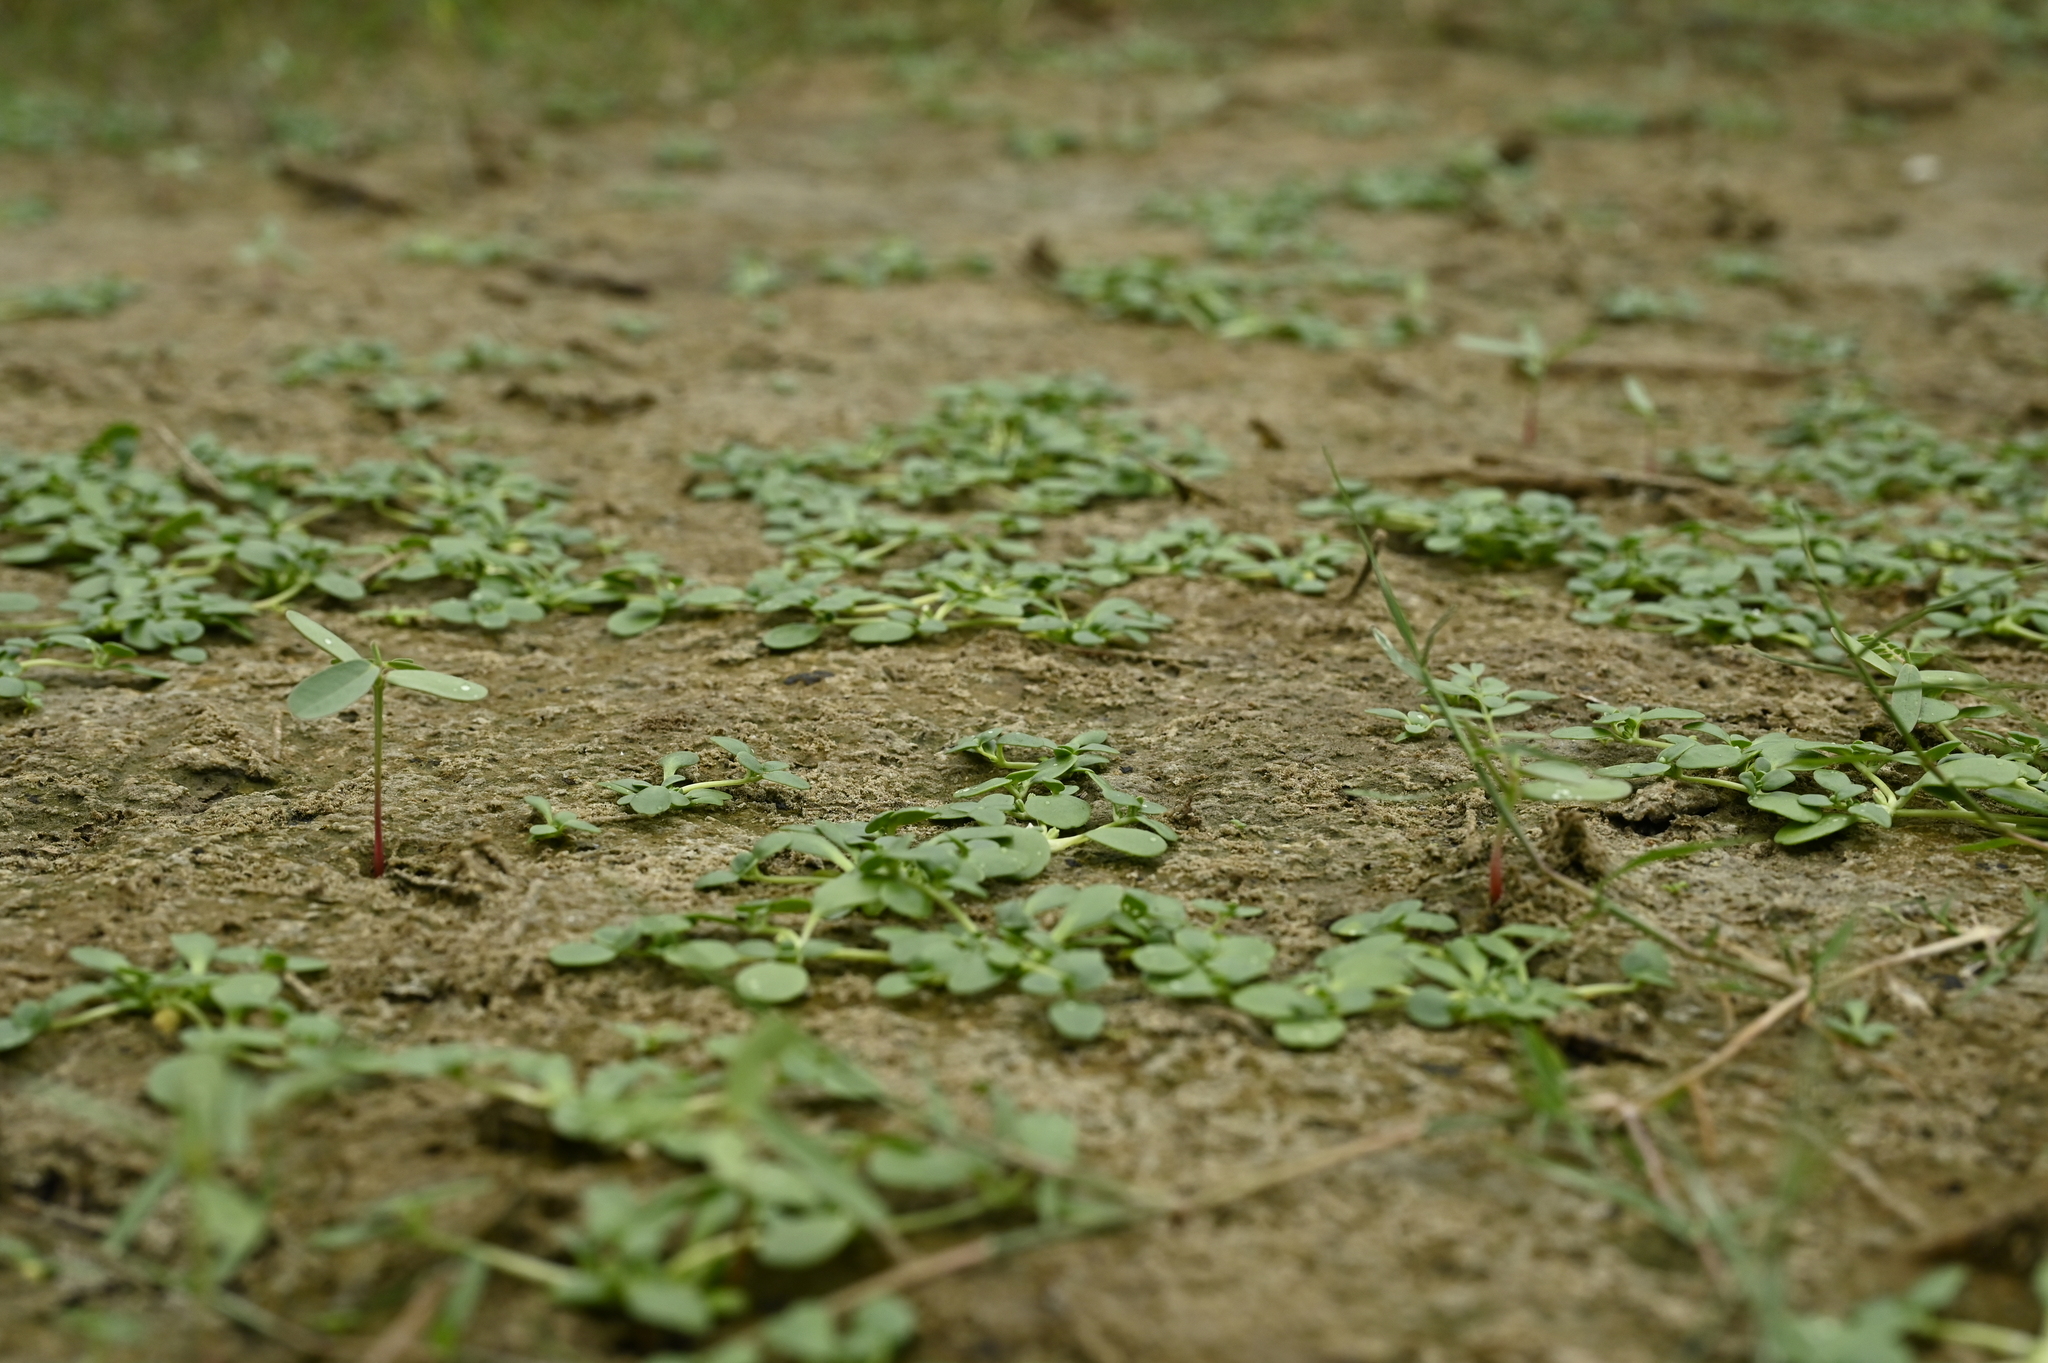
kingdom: Plantae
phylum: Tracheophyta
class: Magnoliopsida
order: Lamiales
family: Phrymaceae
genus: Peplidium
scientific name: Peplidium maritimum
